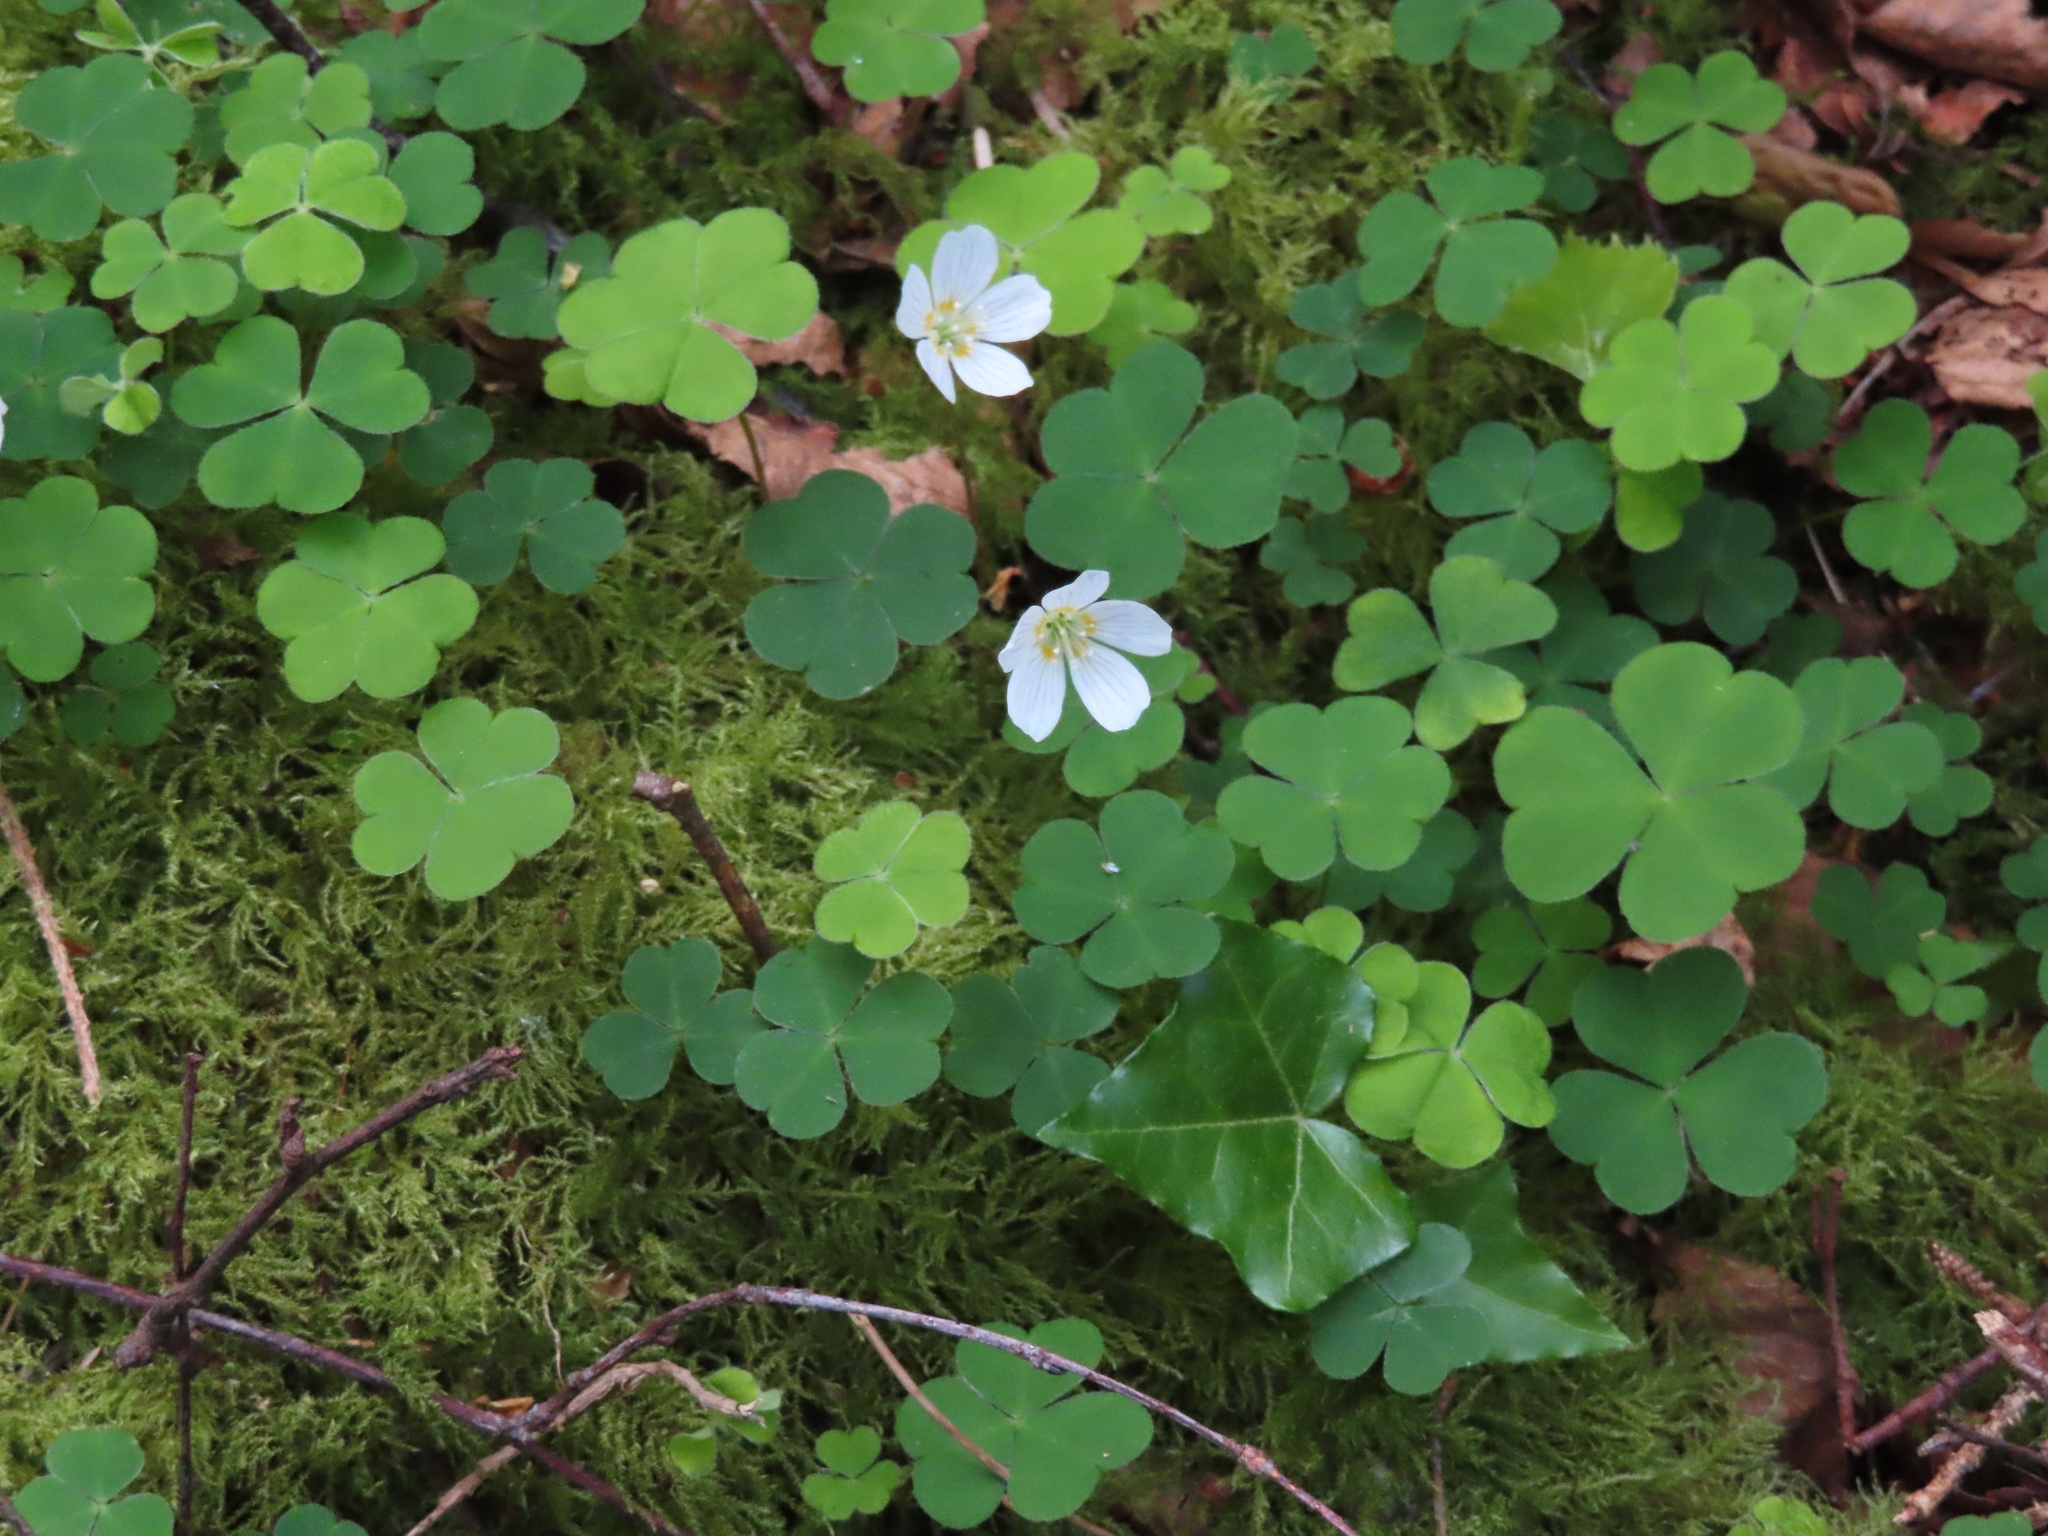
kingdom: Plantae
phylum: Tracheophyta
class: Magnoliopsida
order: Oxalidales
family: Oxalidaceae
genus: Oxalis
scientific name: Oxalis acetosella
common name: Wood-sorrel
